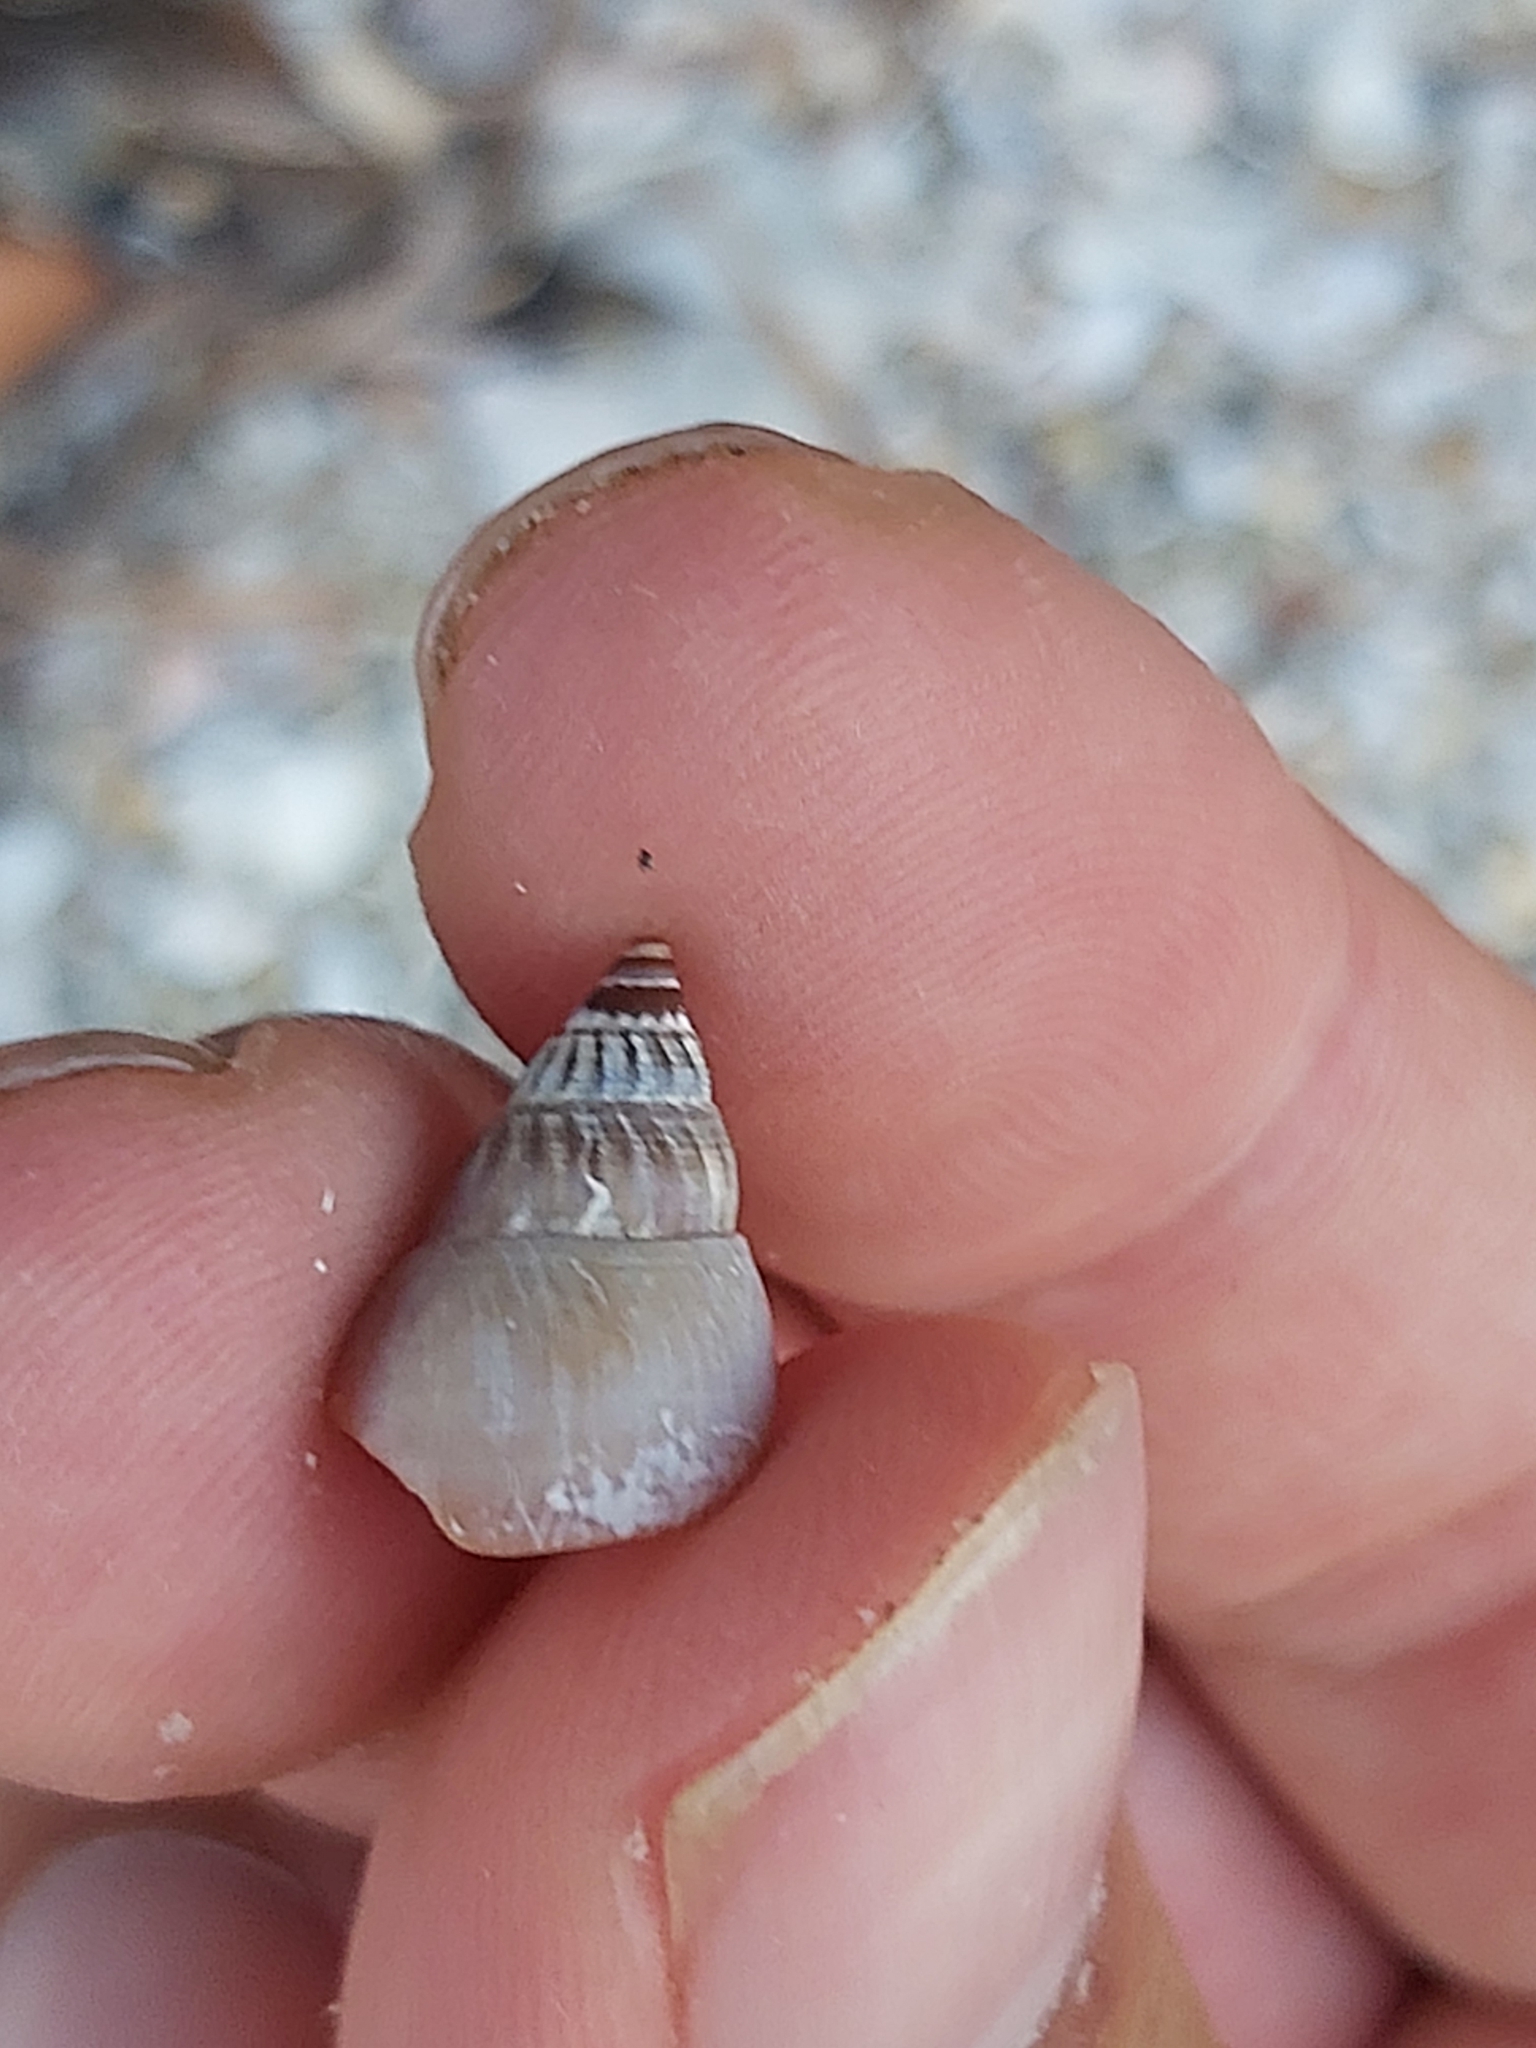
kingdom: Animalia
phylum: Mollusca
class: Gastropoda
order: Neogastropoda
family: Nassariidae
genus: Nassarius
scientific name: Nassarius dorsatus
